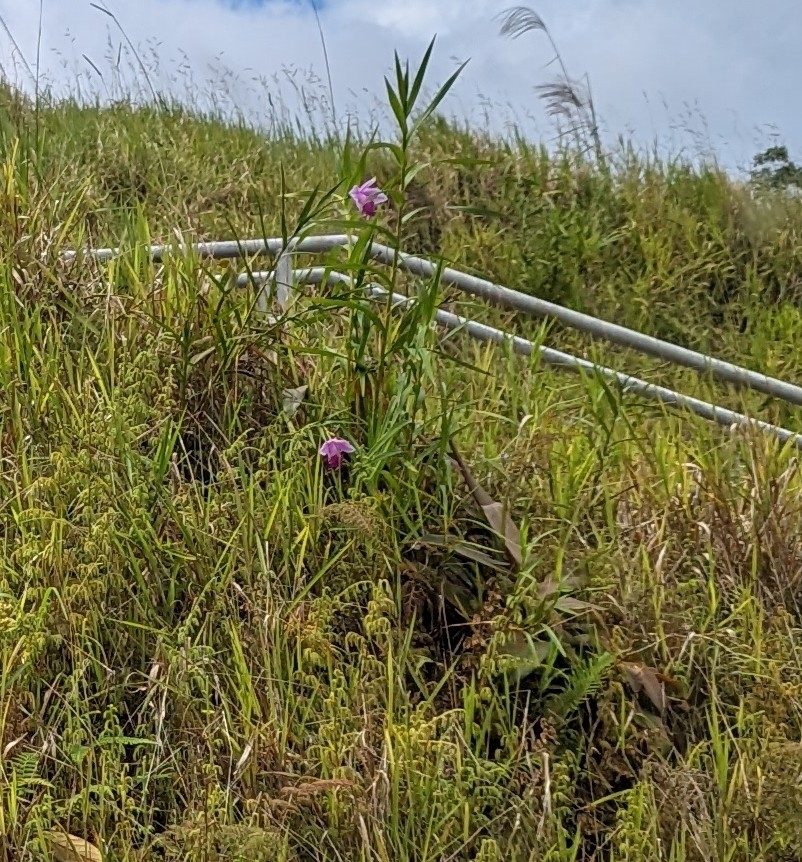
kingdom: Plantae
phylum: Tracheophyta
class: Liliopsida
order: Asparagales
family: Orchidaceae
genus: Arundina
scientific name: Arundina graminifolia
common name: Bamboo orchid
